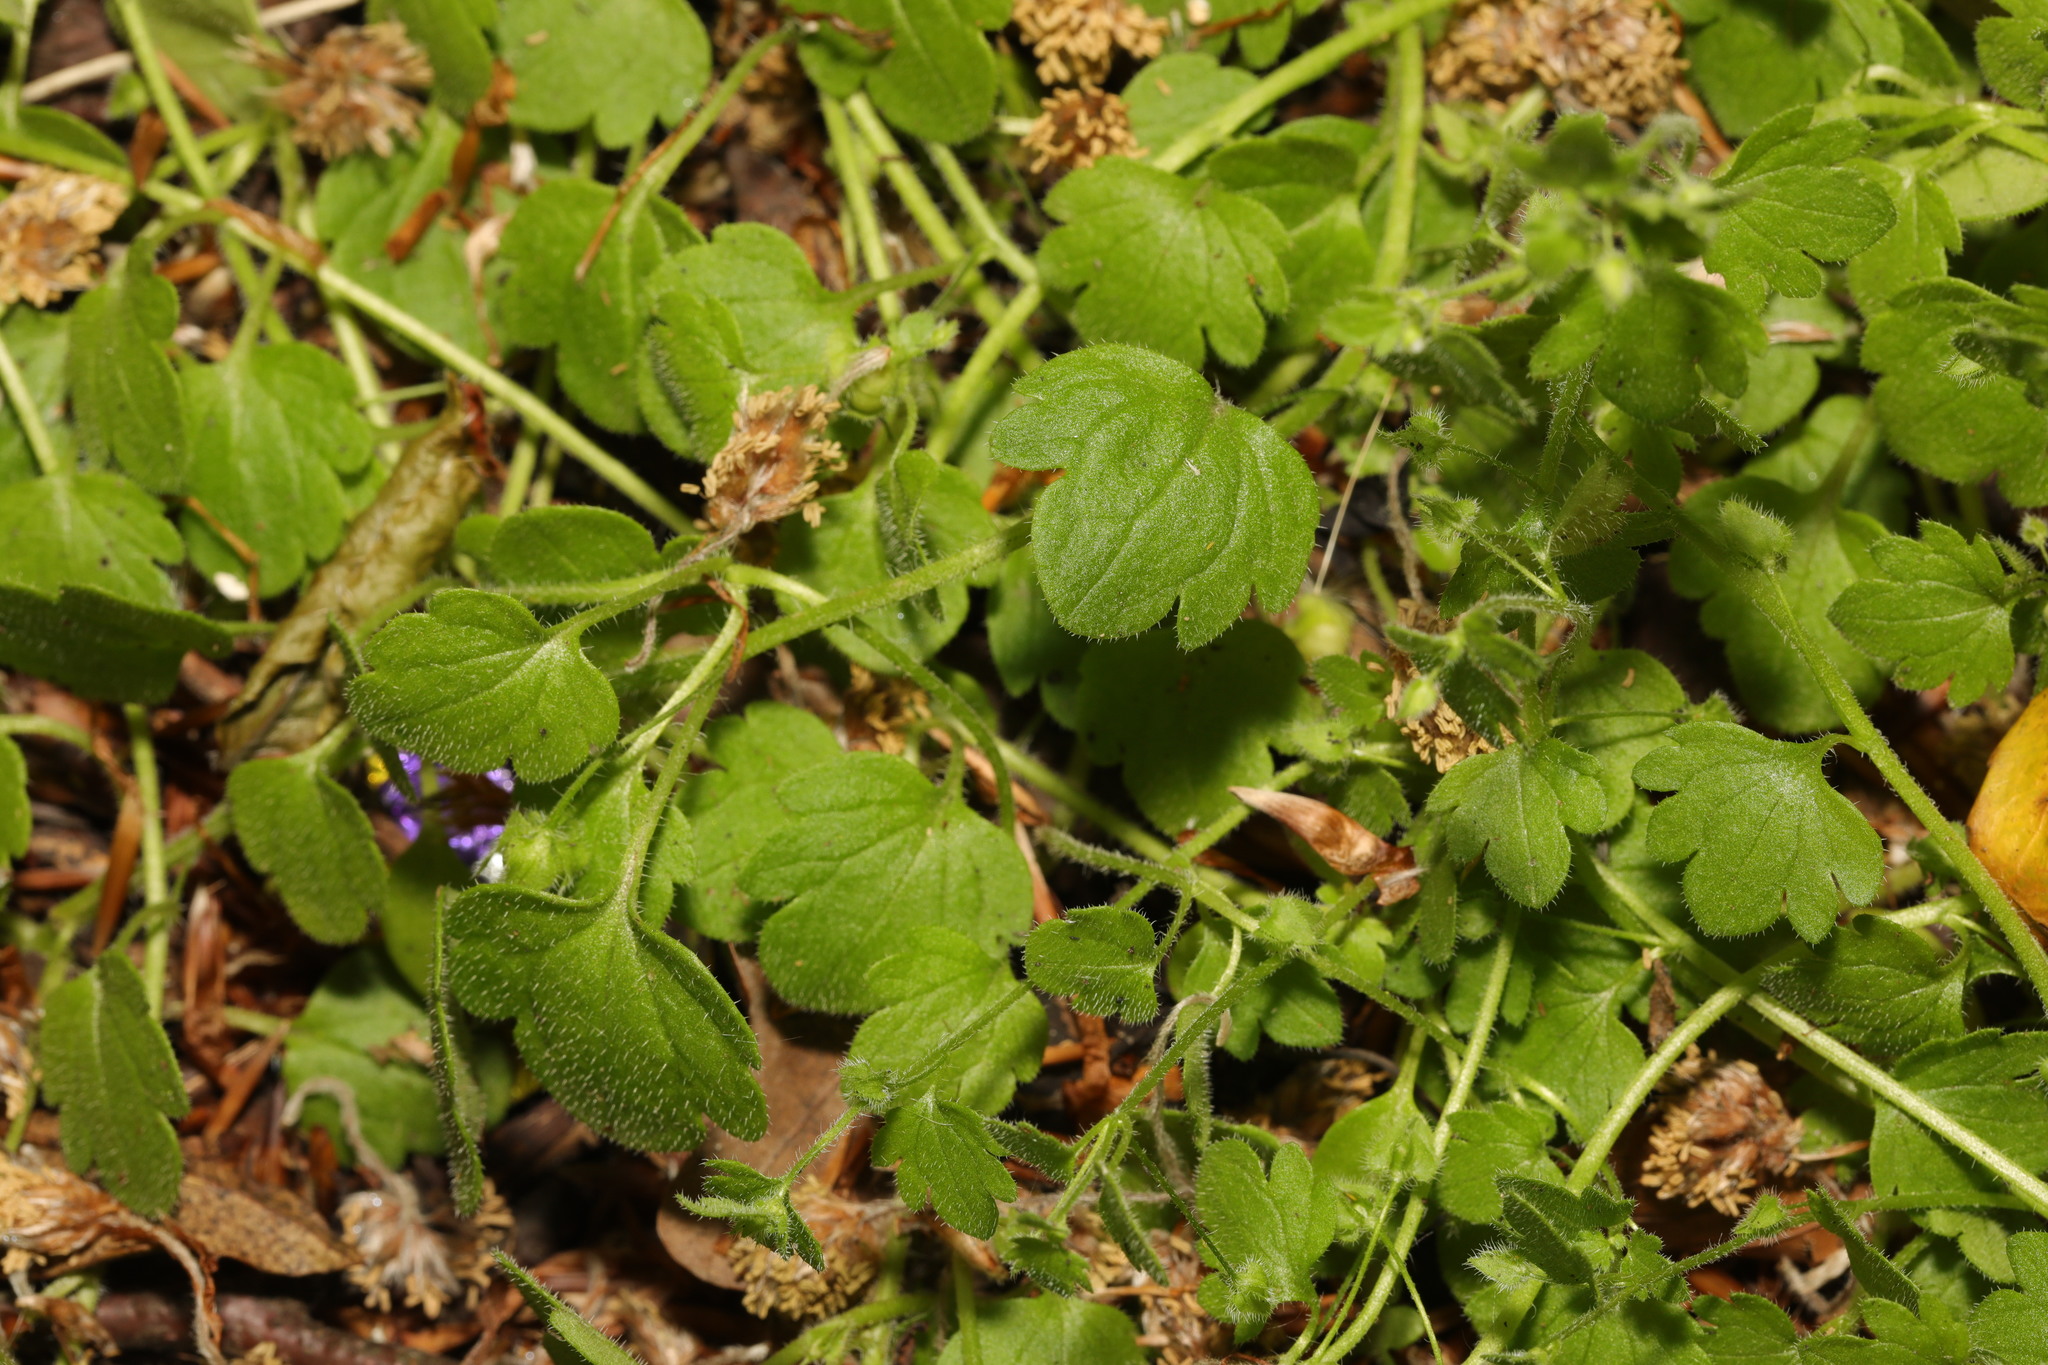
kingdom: Plantae
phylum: Tracheophyta
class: Magnoliopsida
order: Lamiales
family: Plantaginaceae
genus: Veronica
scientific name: Veronica sublobata
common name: False ivy-leaved speedwell
